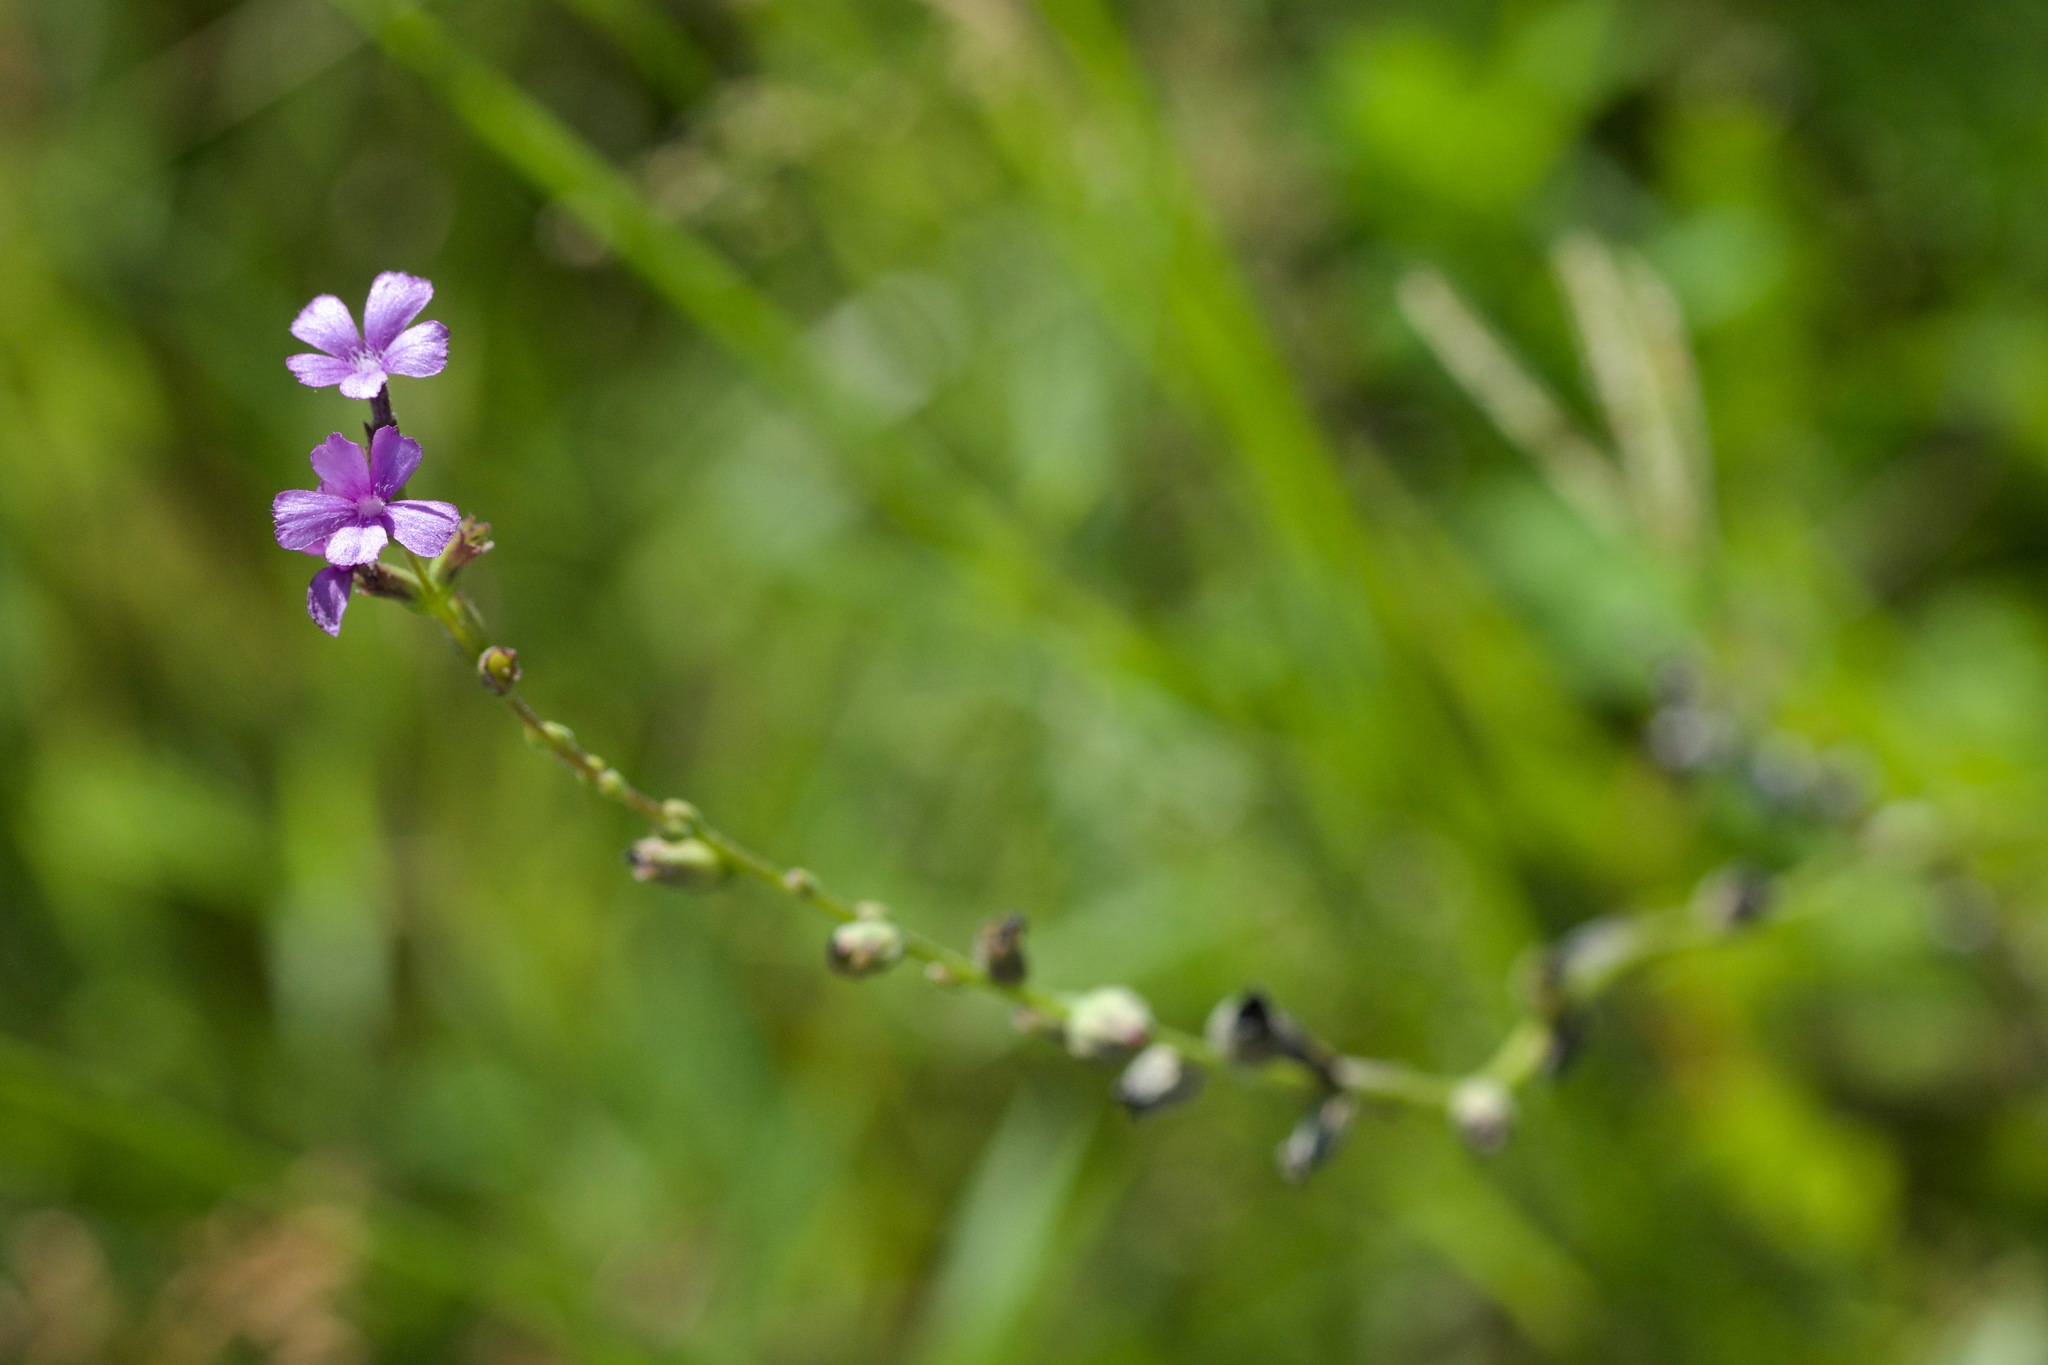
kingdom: Plantae
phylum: Tracheophyta
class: Magnoliopsida
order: Lamiales
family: Orobanchaceae
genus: Buchnera
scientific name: Buchnera floridana
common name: Florida bluehearts
